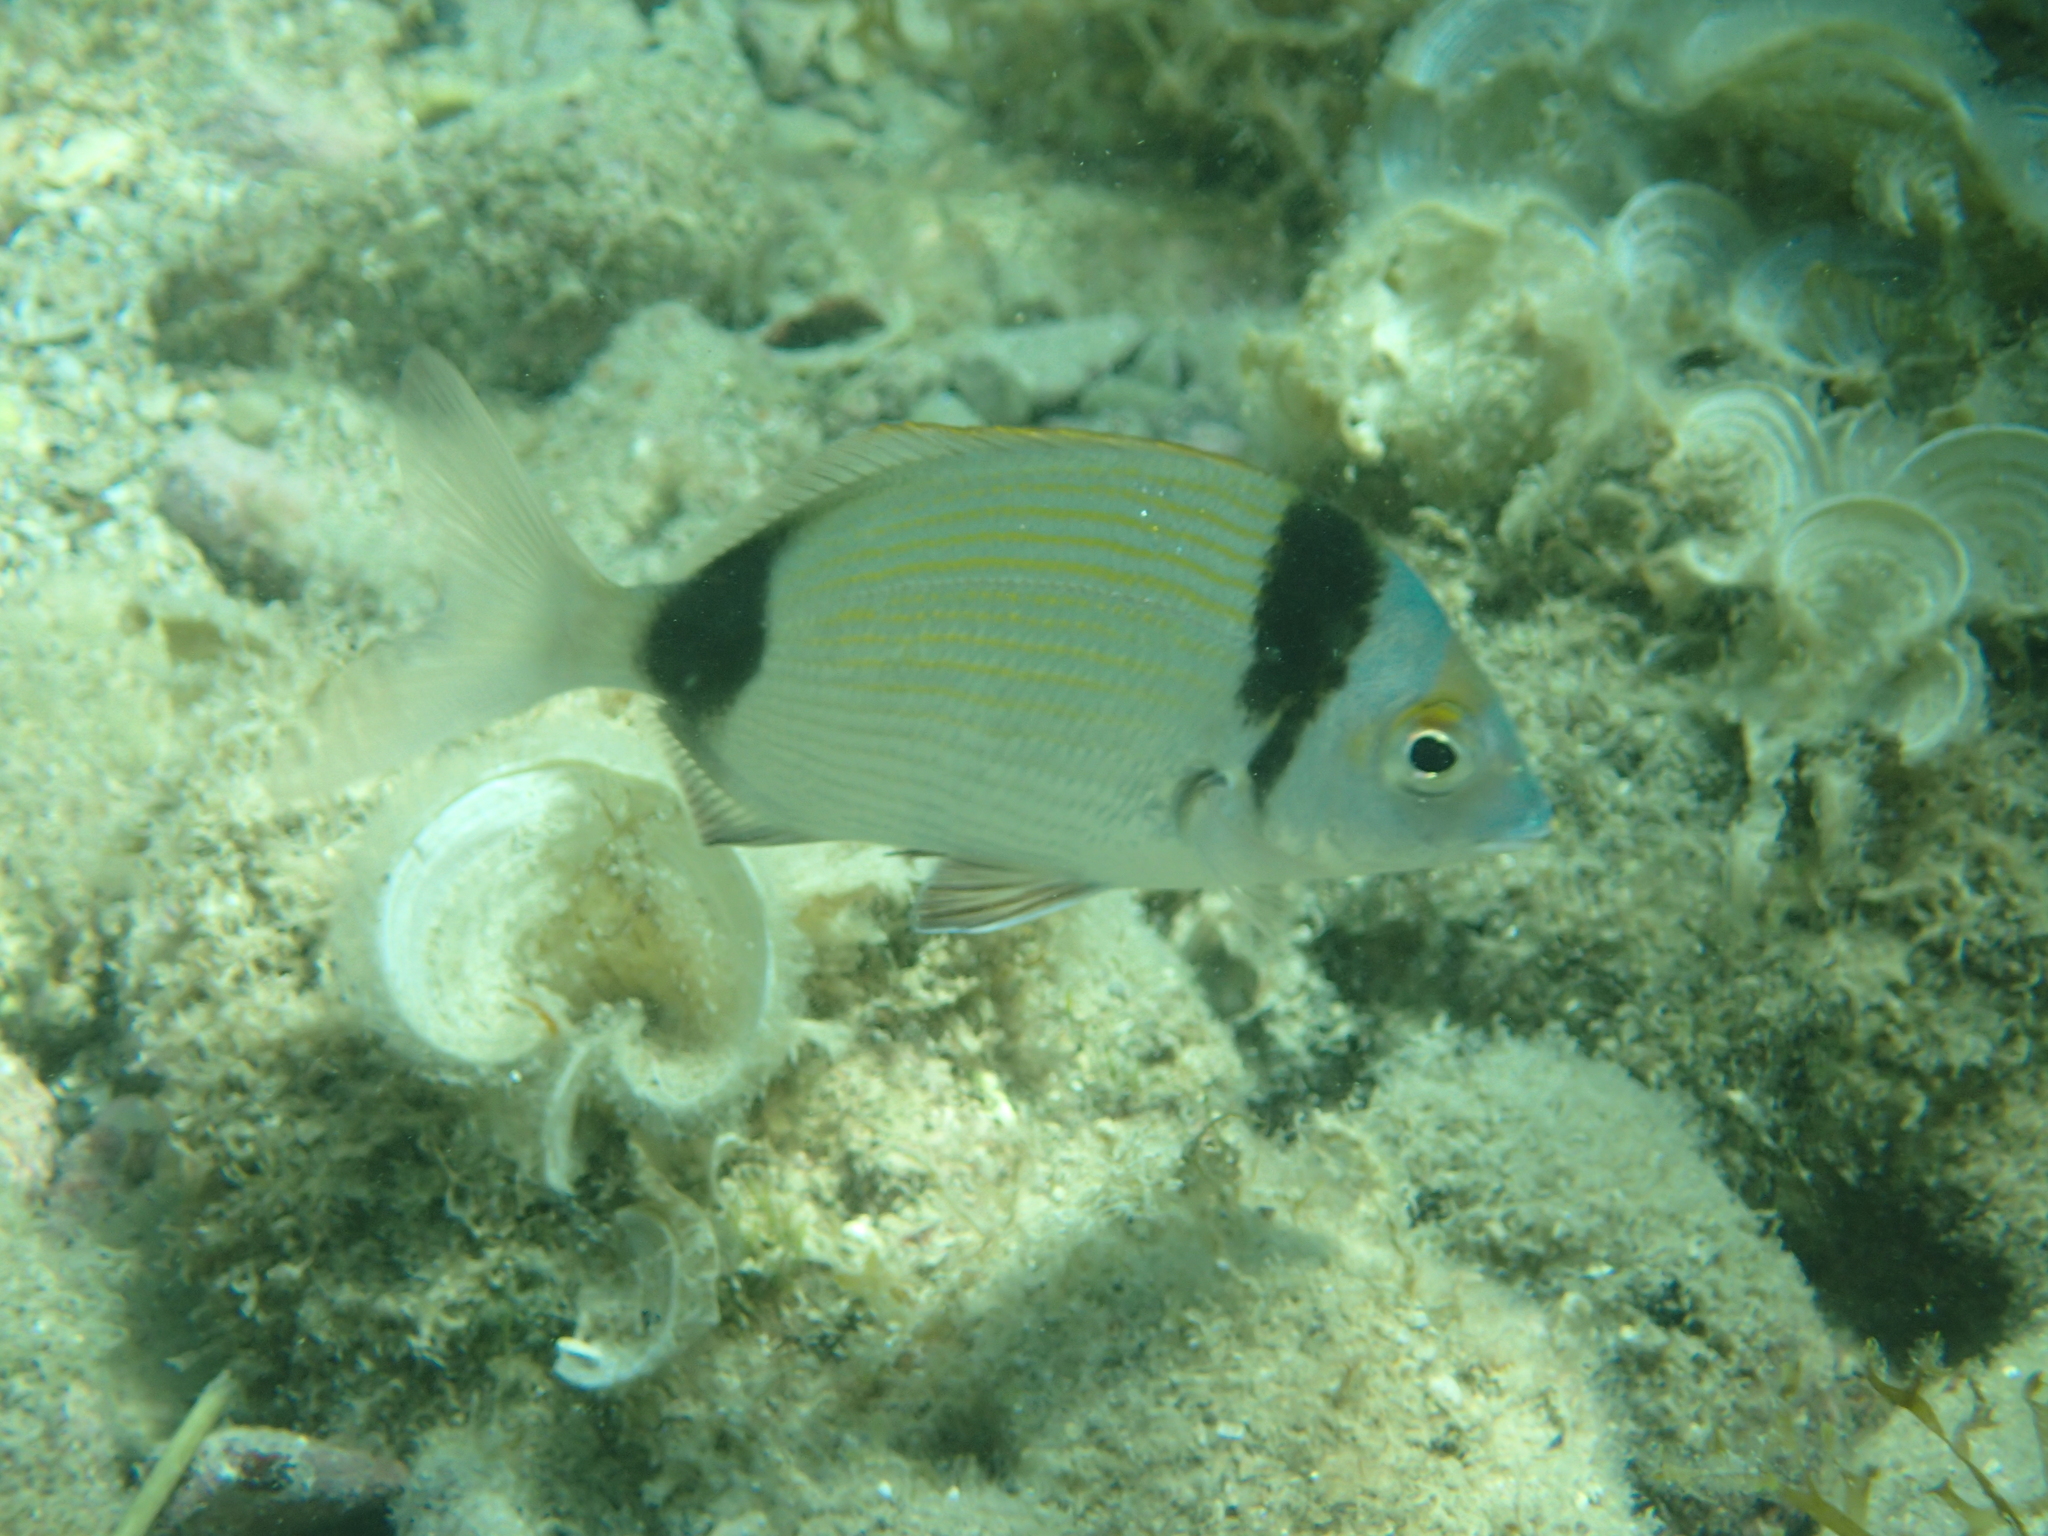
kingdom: Animalia
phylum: Chordata
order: Perciformes
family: Sparidae
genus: Diplodus
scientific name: Diplodus vulgaris
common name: Common two-banded seabream
